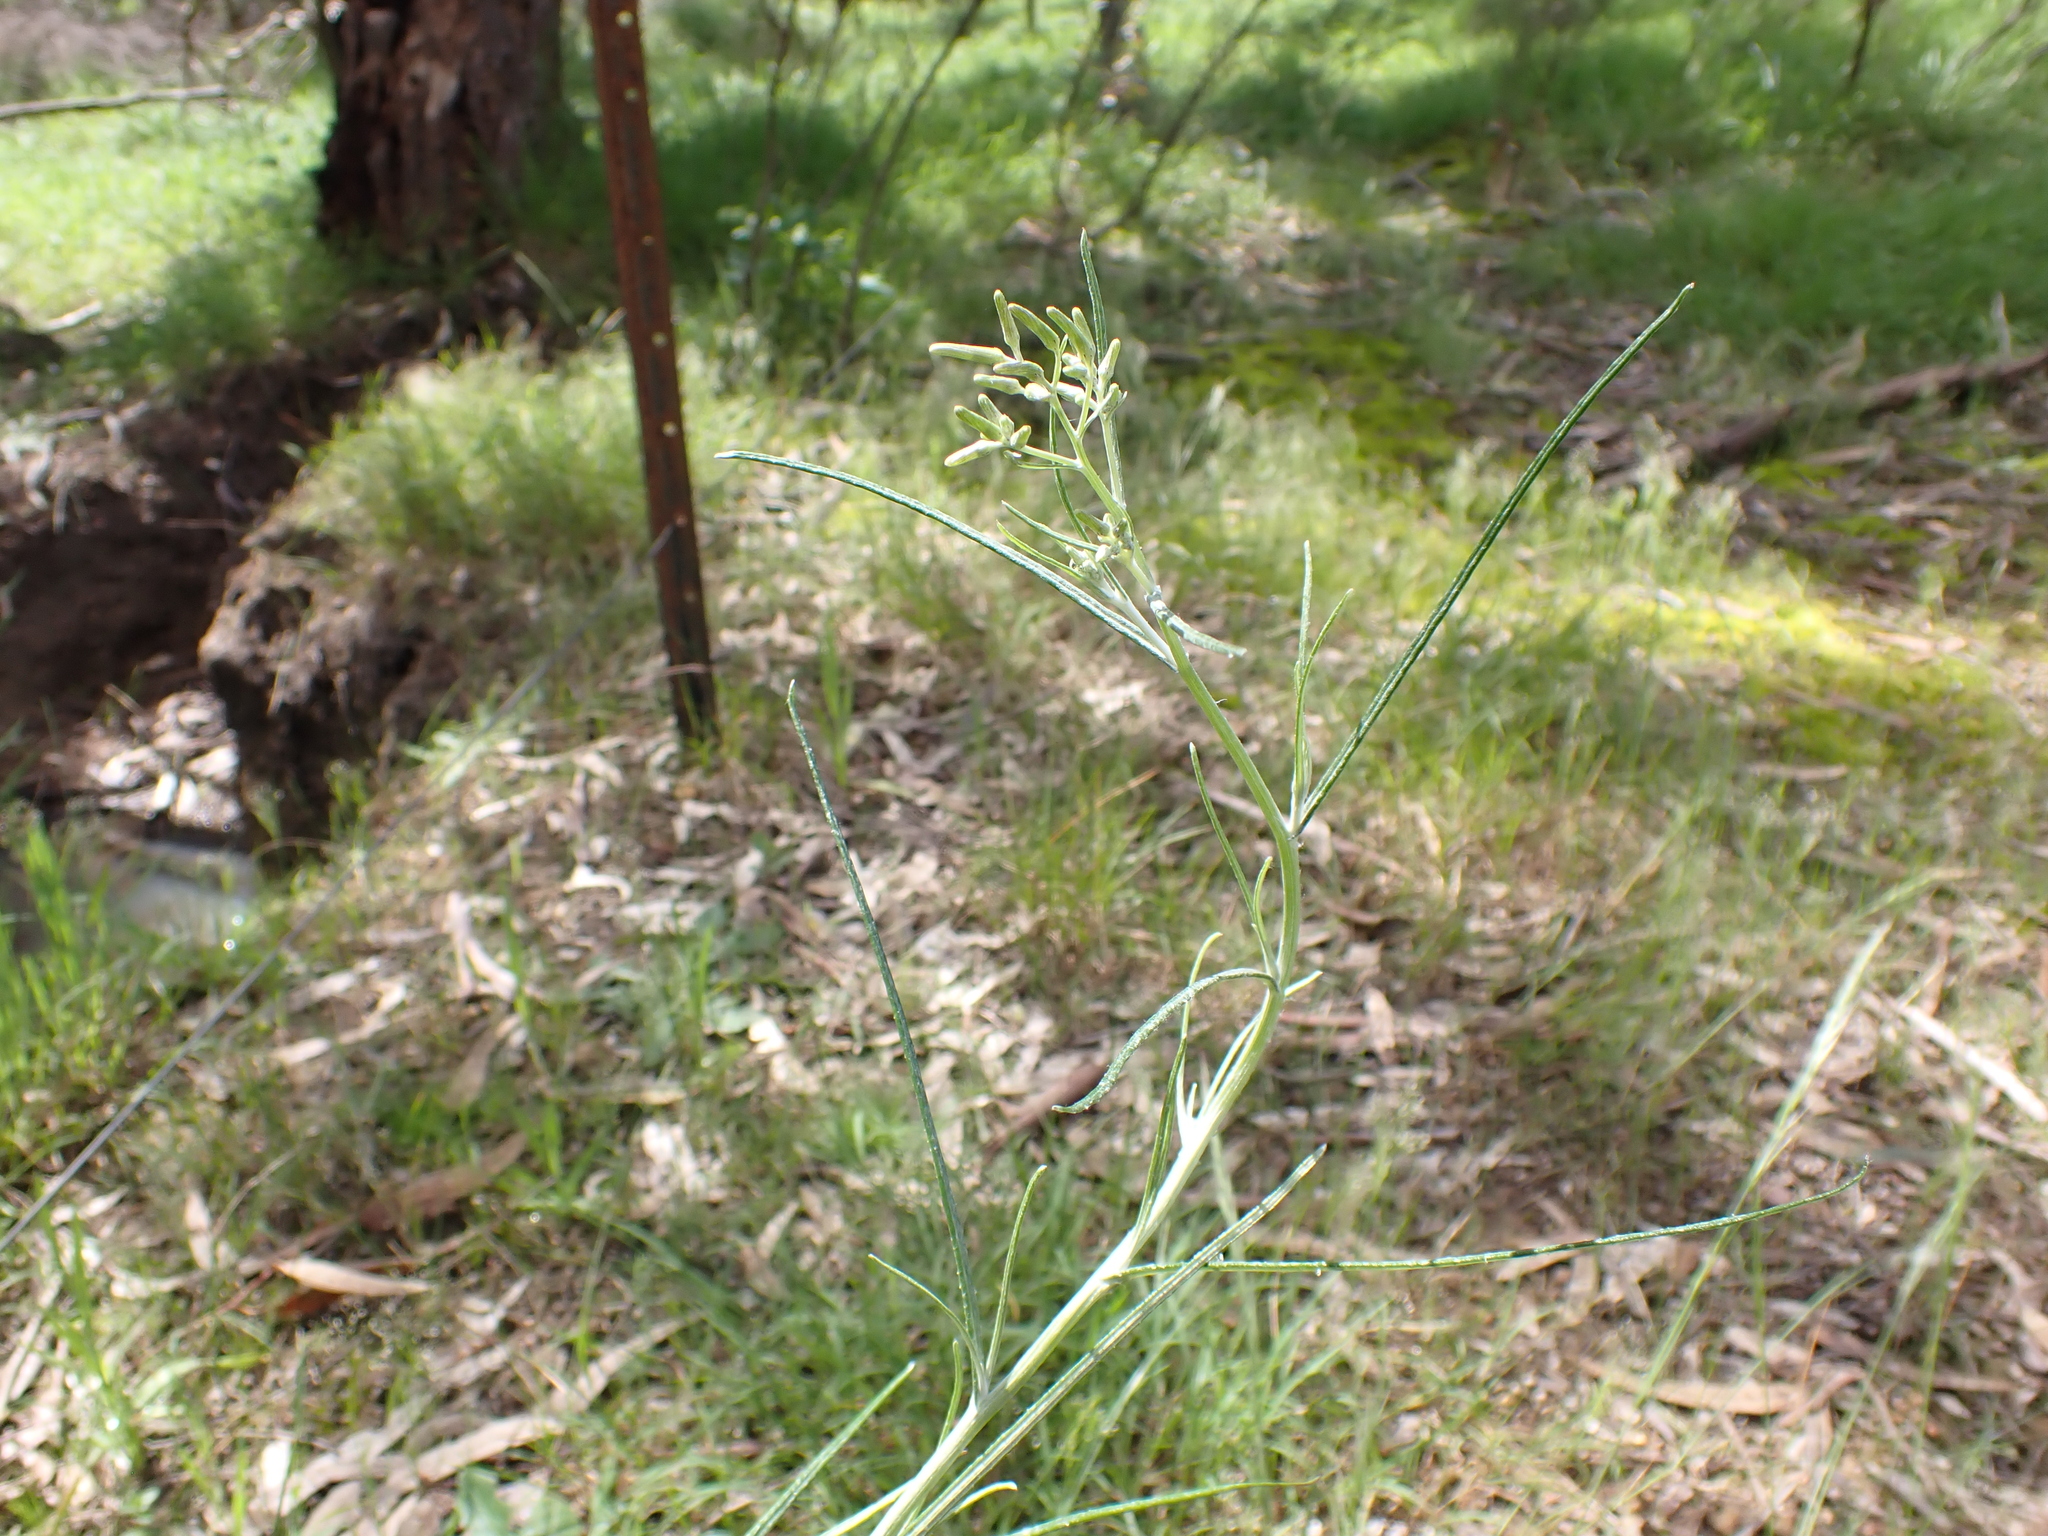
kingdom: Plantae
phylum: Tracheophyta
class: Magnoliopsida
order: Asterales
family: Asteraceae
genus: Senecio
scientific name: Senecio quadridentatus
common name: Cotton fireweed
